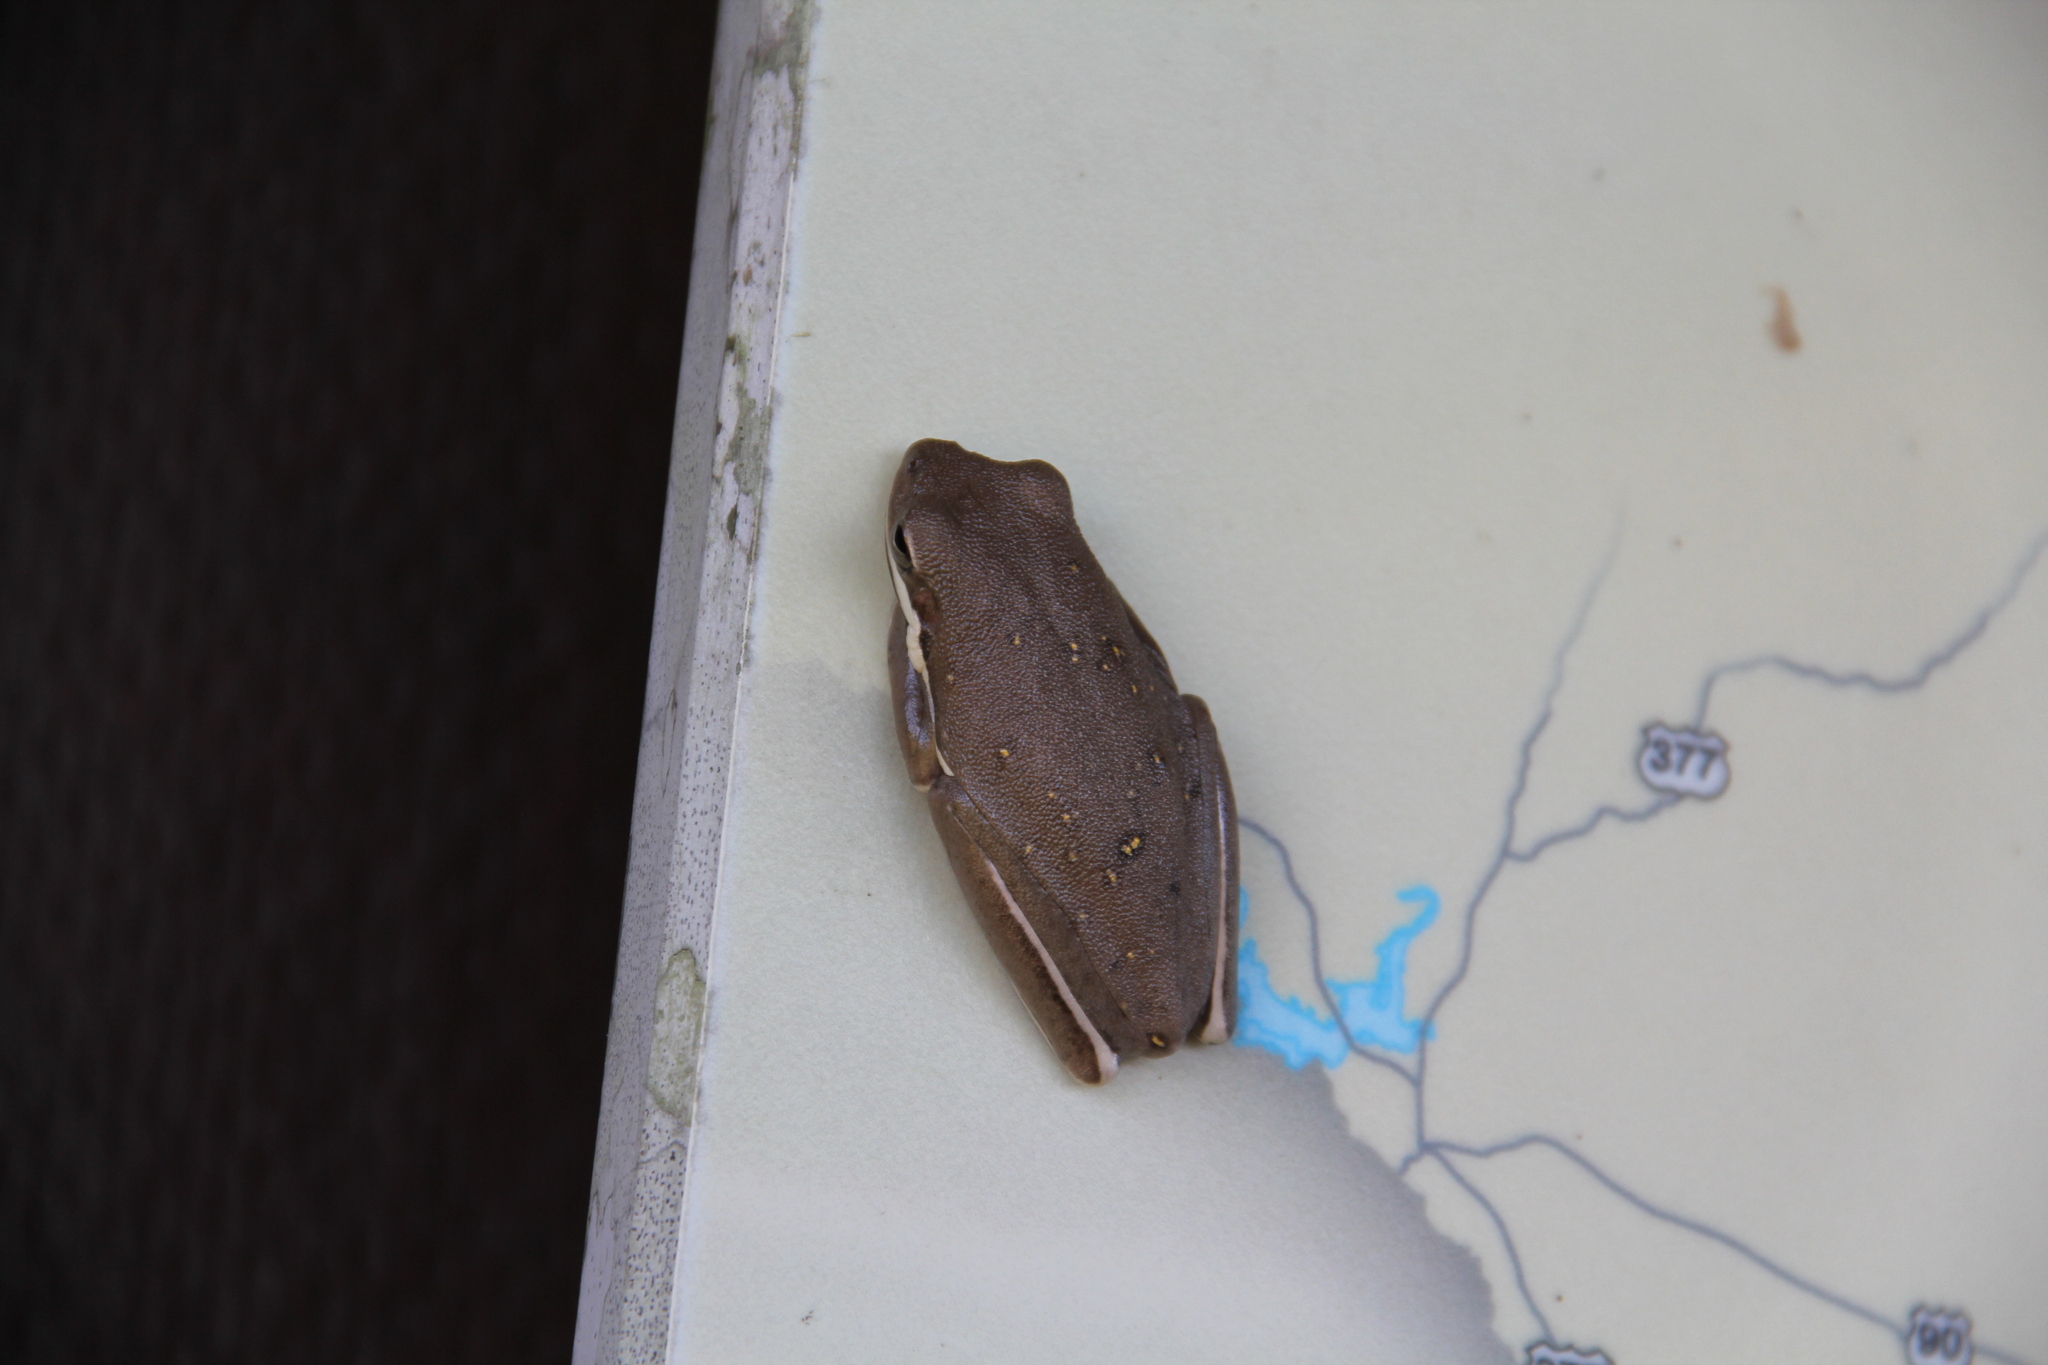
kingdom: Animalia
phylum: Chordata
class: Amphibia
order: Anura
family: Hylidae
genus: Dryophytes
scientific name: Dryophytes cinereus
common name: Green treefrog
